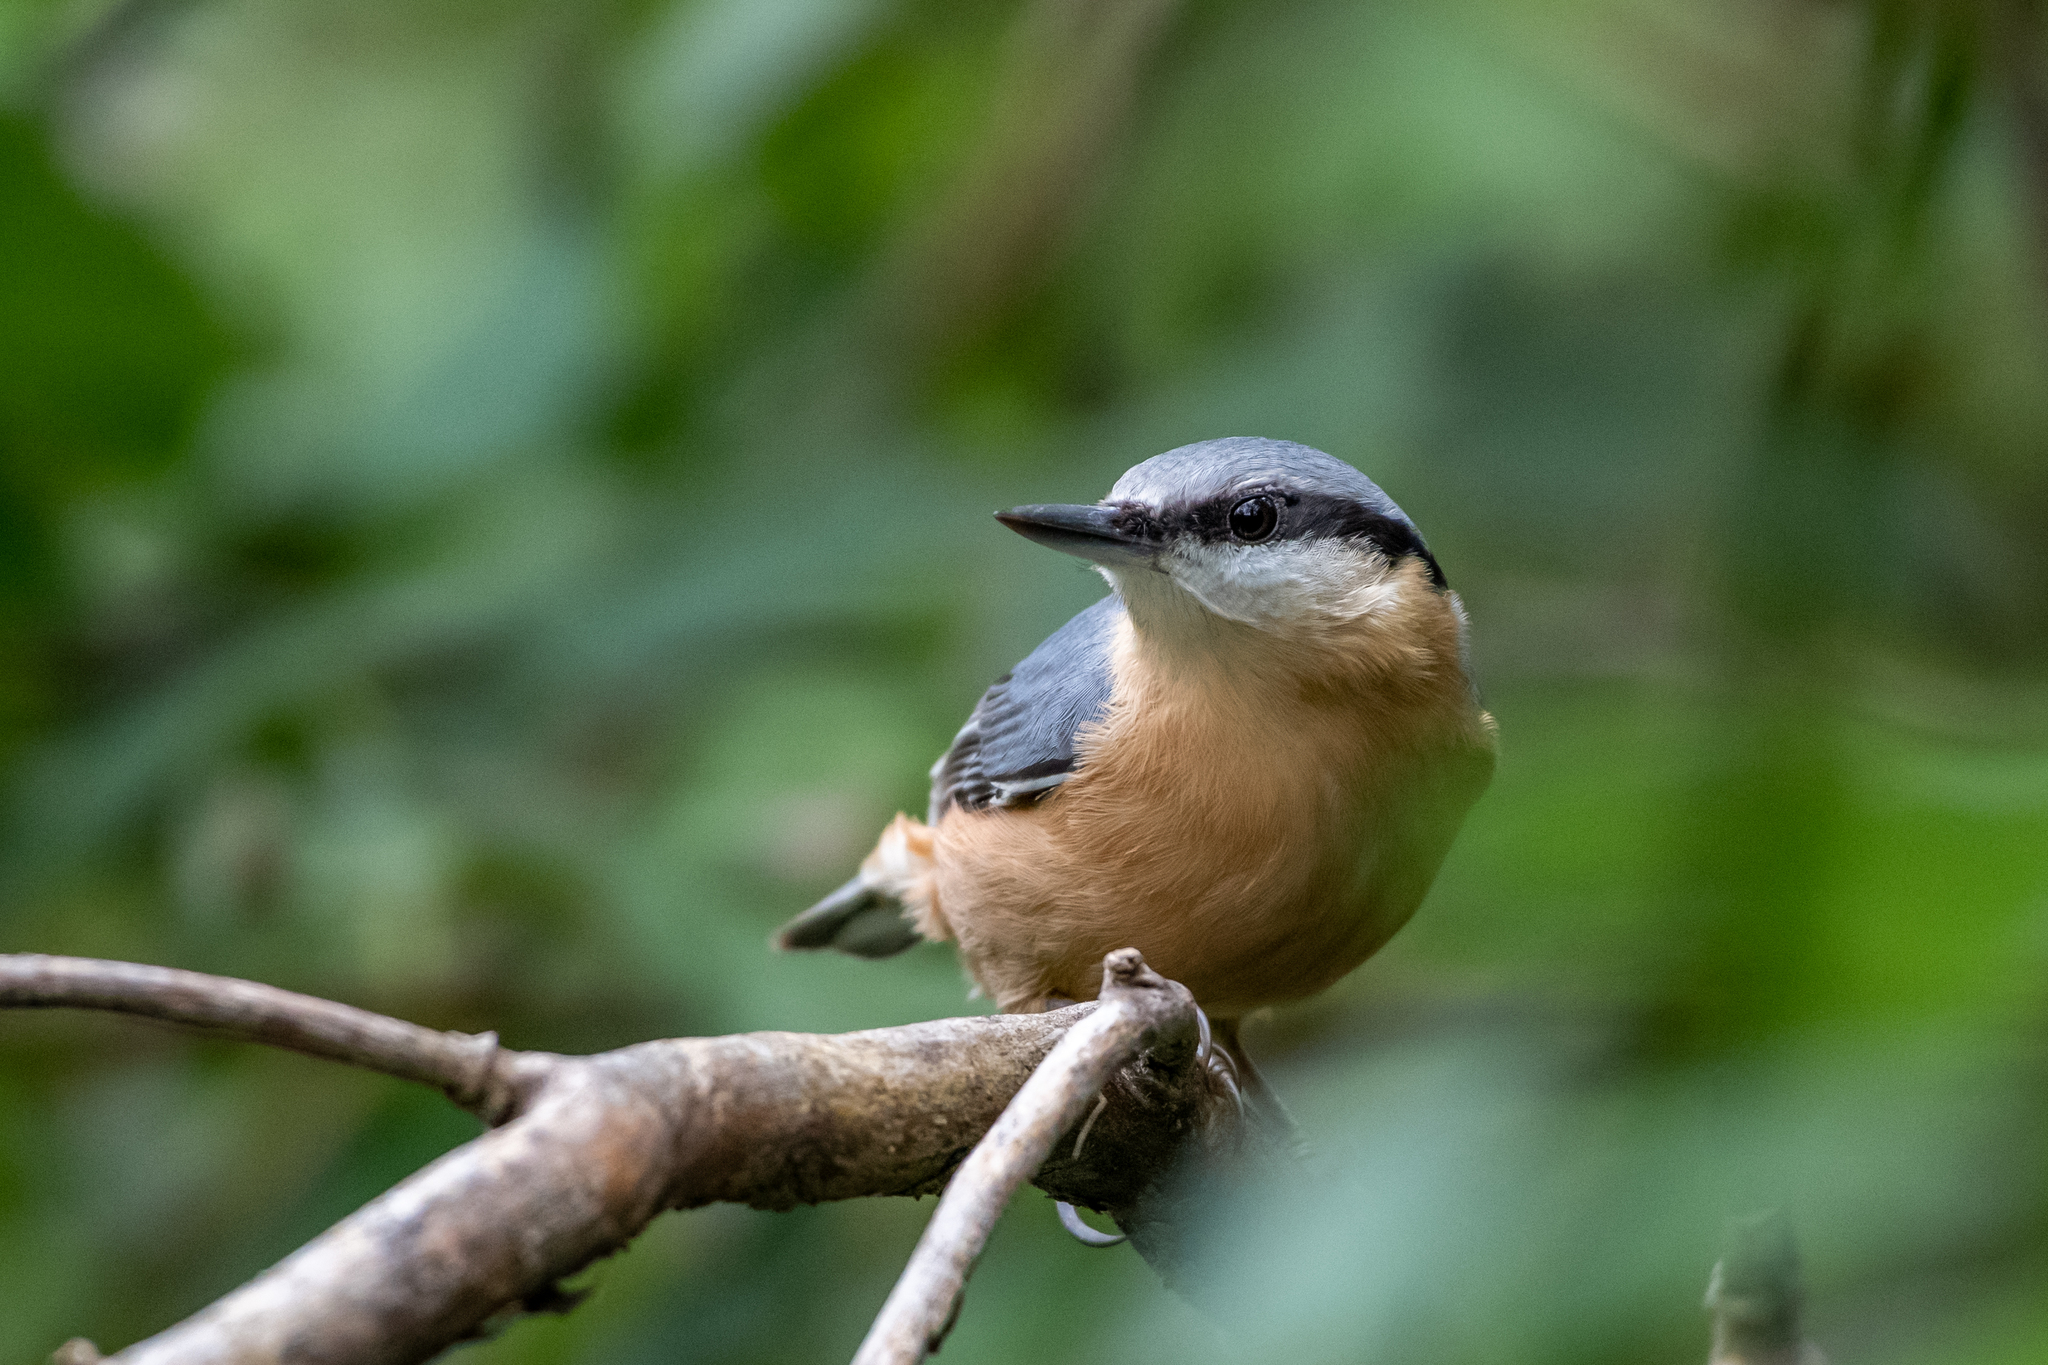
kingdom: Animalia
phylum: Chordata
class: Aves
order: Passeriformes
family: Sittidae
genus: Sitta
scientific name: Sitta europaea
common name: Eurasian nuthatch
